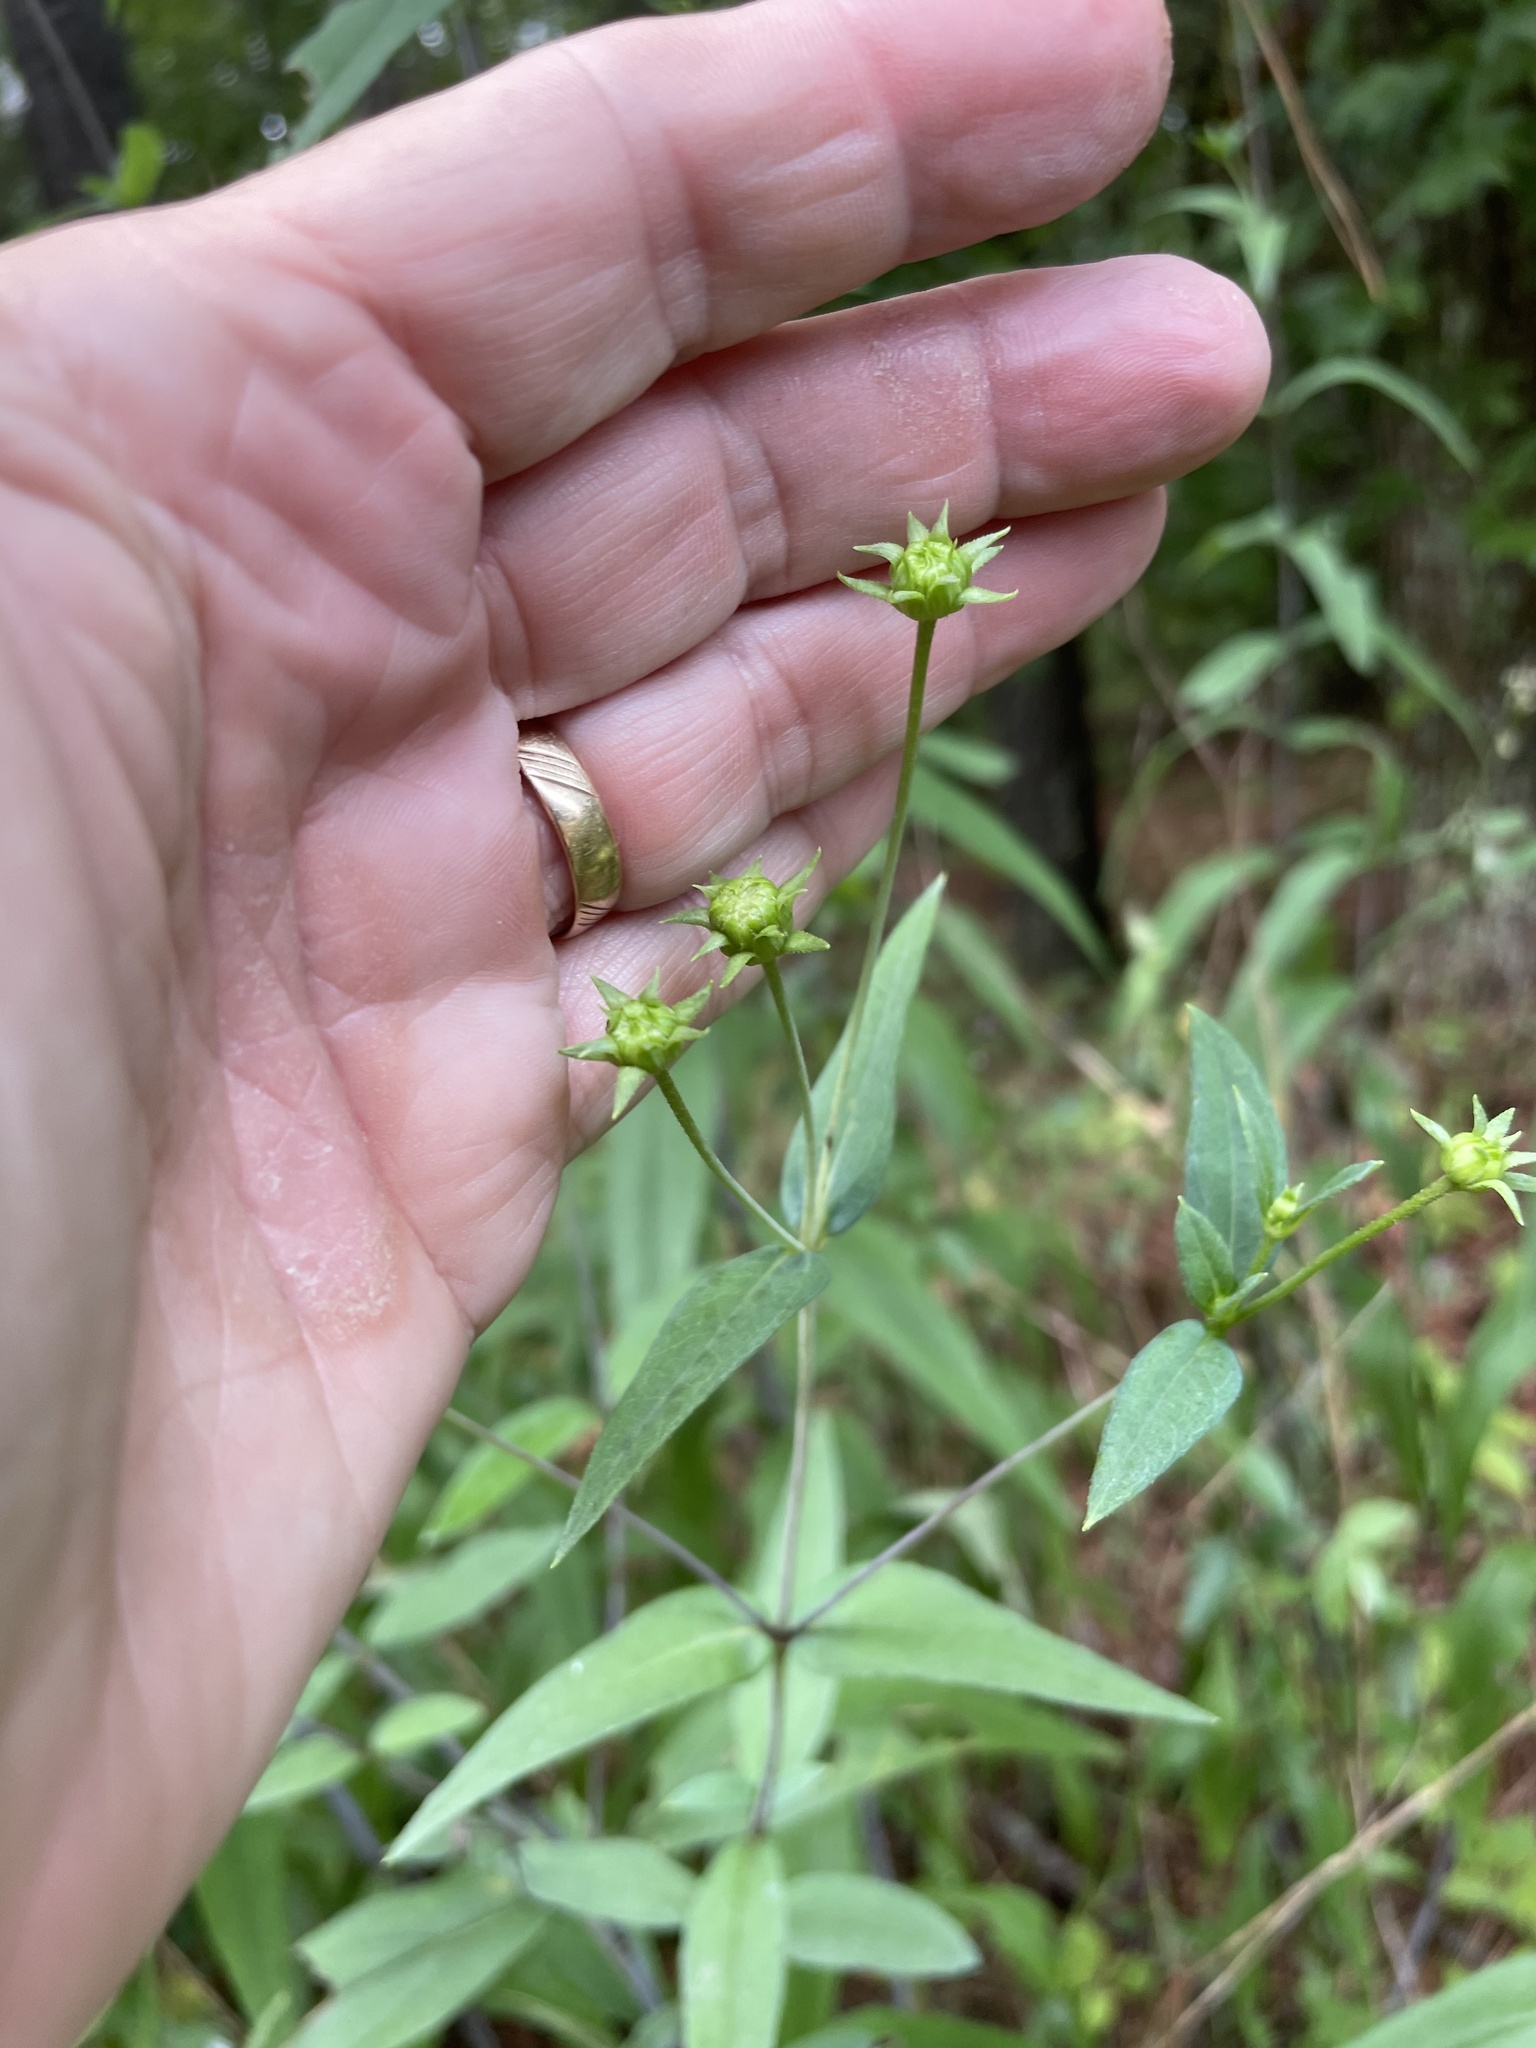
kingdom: Plantae
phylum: Tracheophyta
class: Magnoliopsida
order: Asterales
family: Asteraceae
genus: Helianthus
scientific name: Helianthus laevigatus
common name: Smooth sunflower
